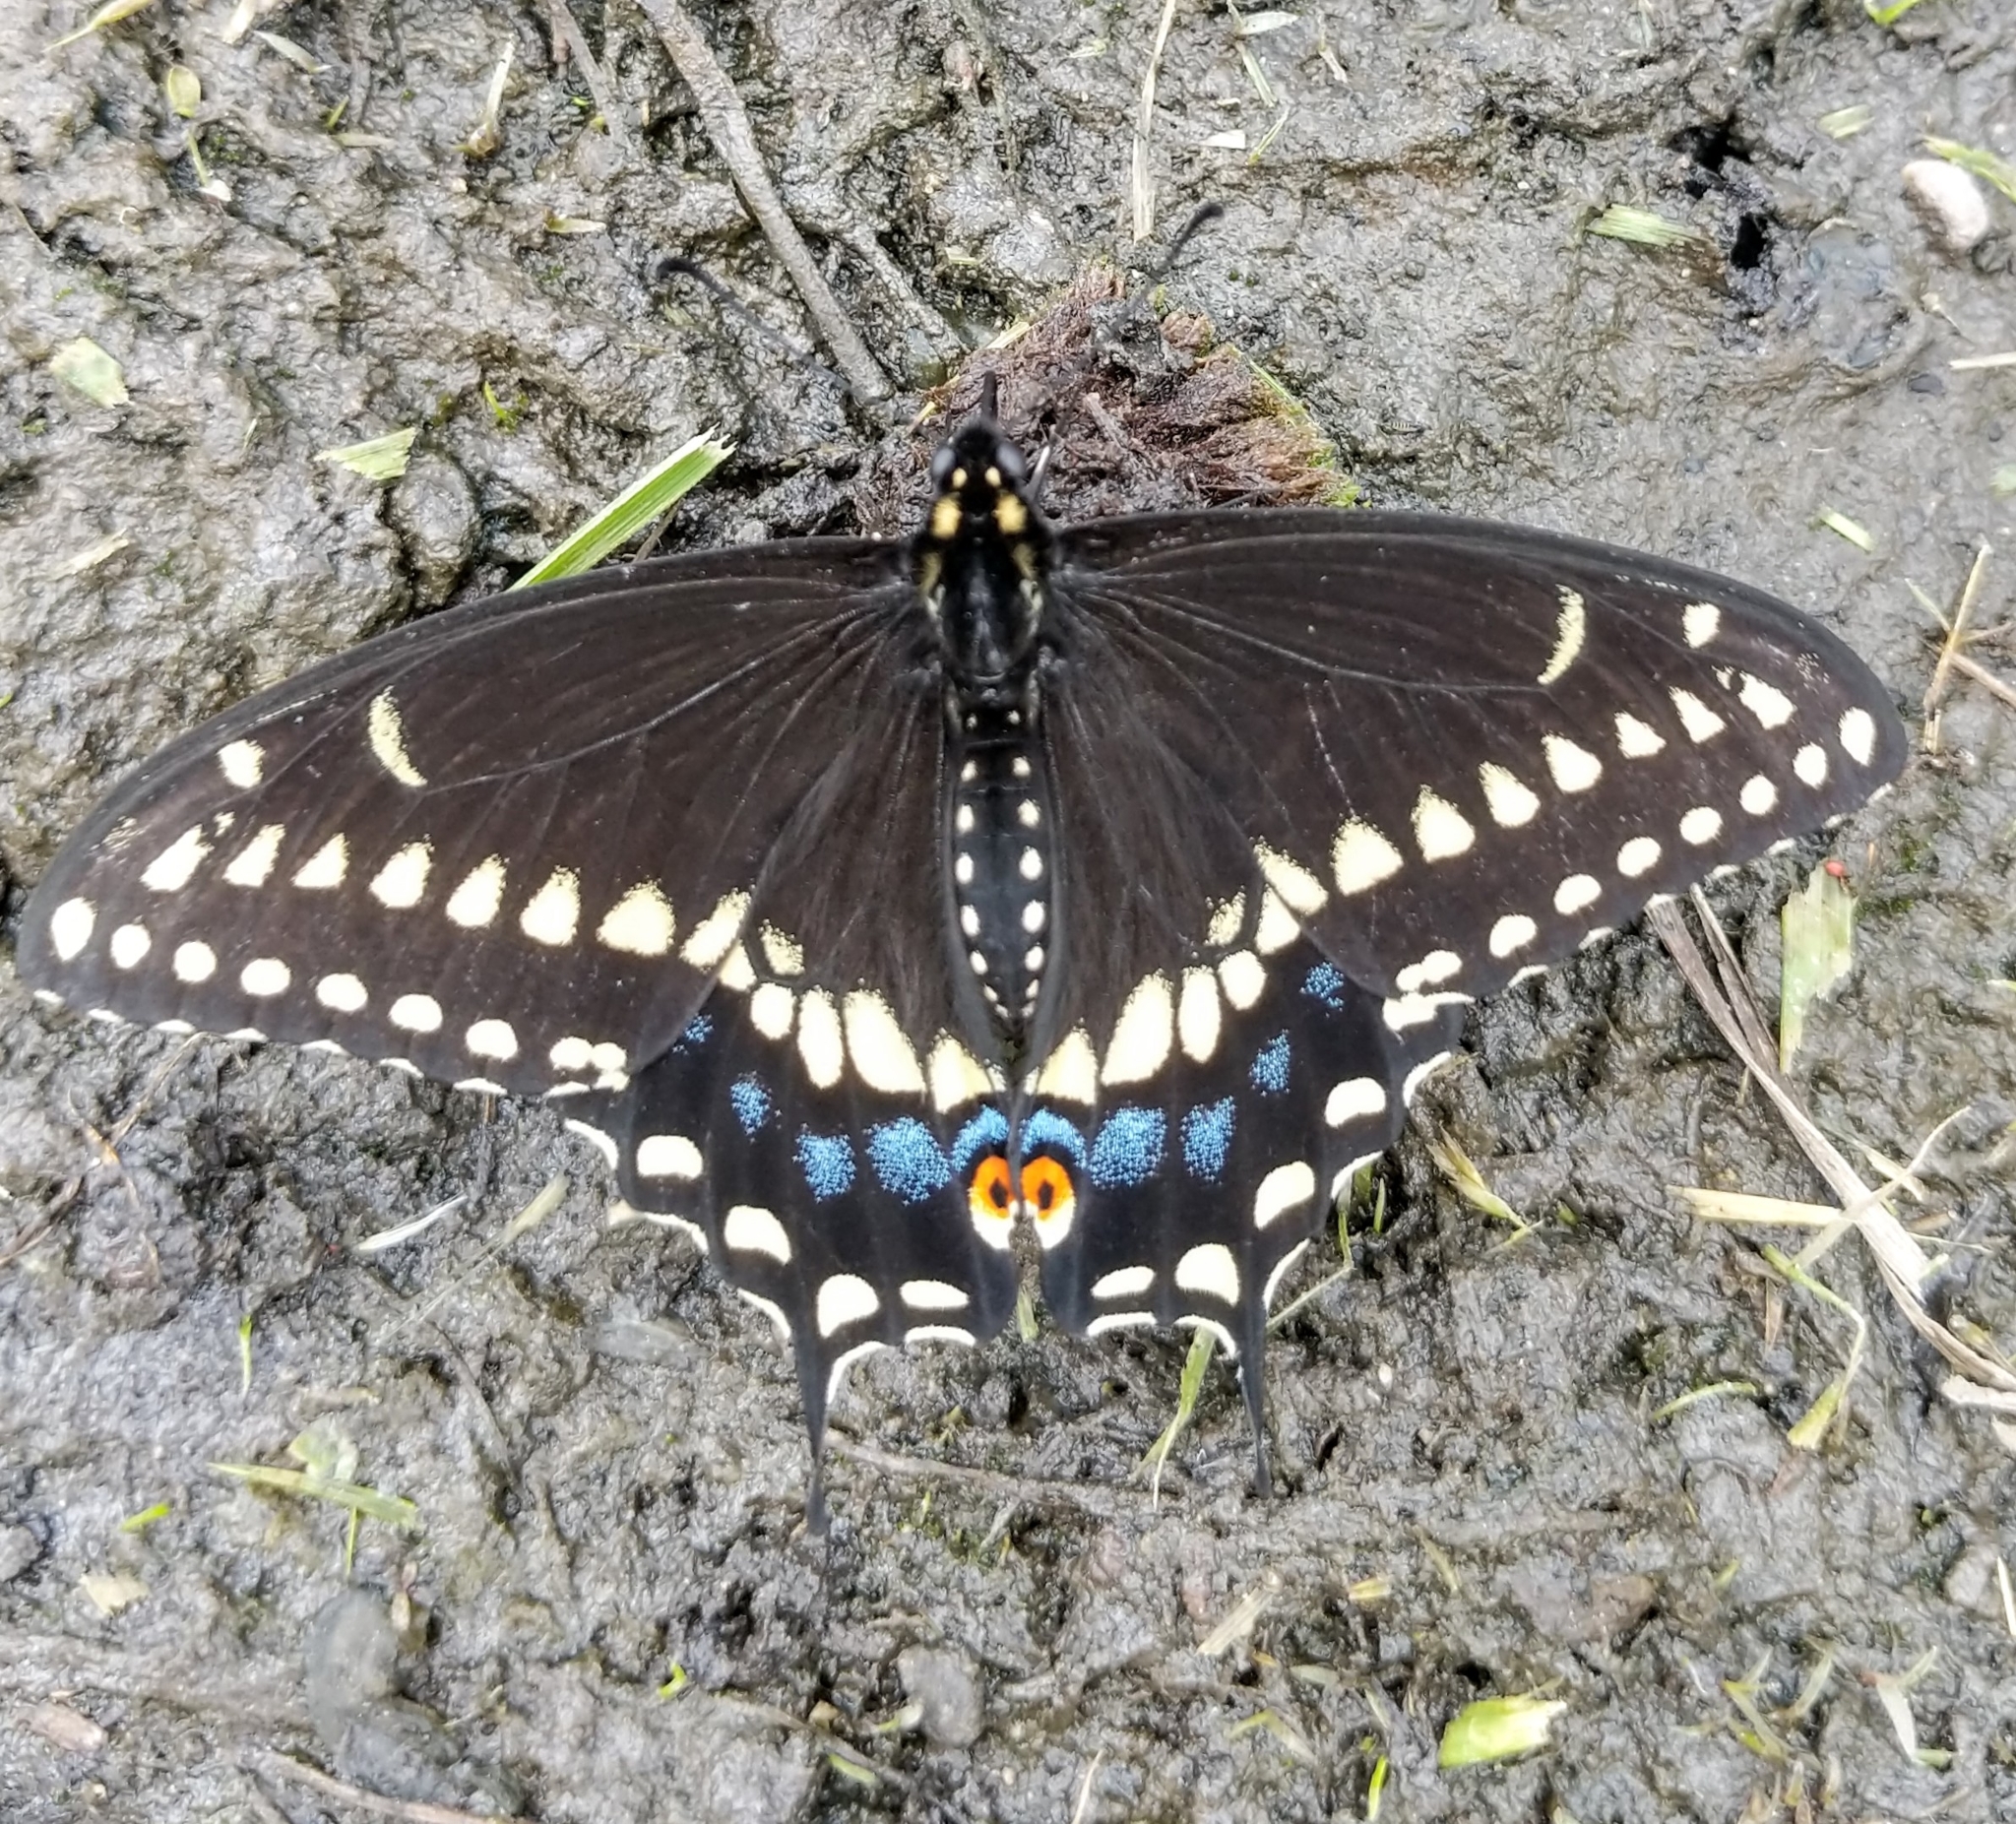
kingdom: Animalia
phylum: Arthropoda
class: Insecta
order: Lepidoptera
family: Papilionidae
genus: Papilio
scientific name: Papilio polyxenes
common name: Black swallowtail
